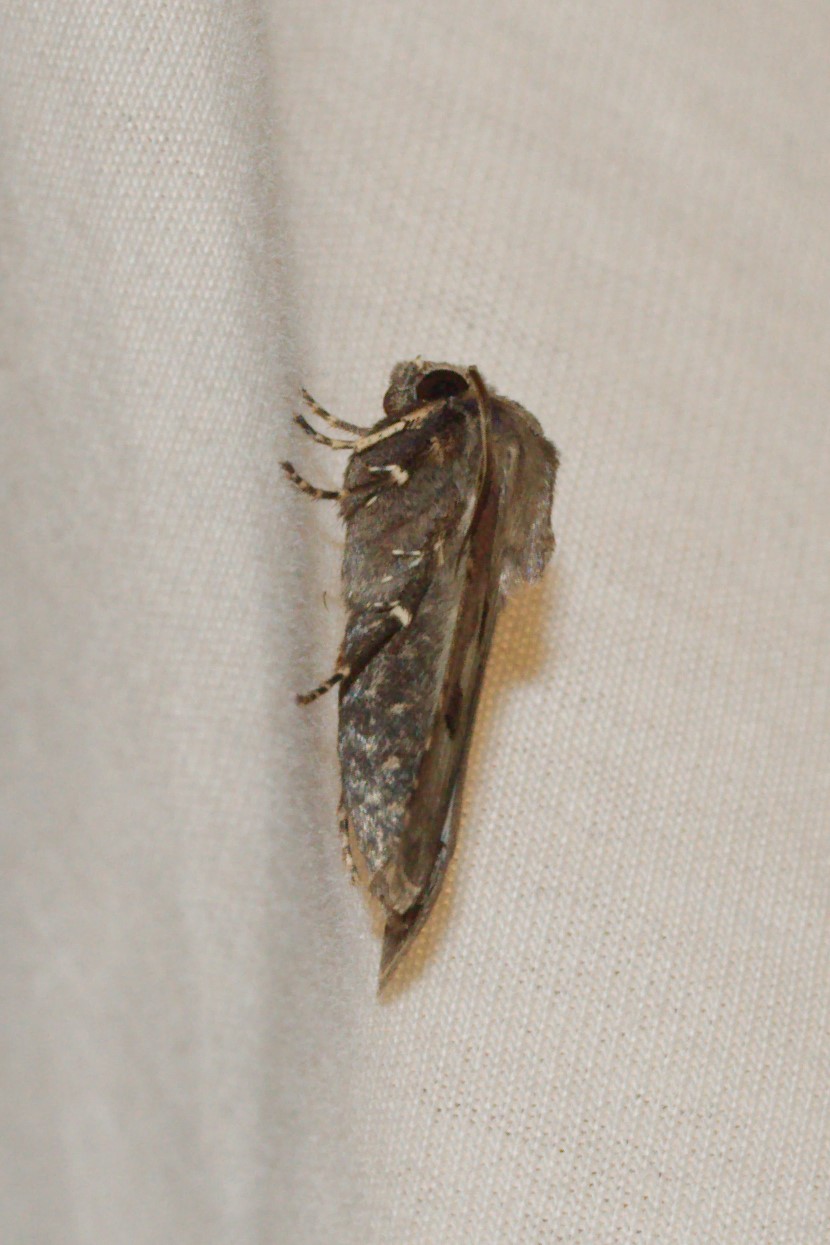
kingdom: Animalia
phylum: Arthropoda
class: Insecta
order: Lepidoptera
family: Noctuidae
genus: Agrotis
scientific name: Agrotis exclamationis
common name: Heart and dart
